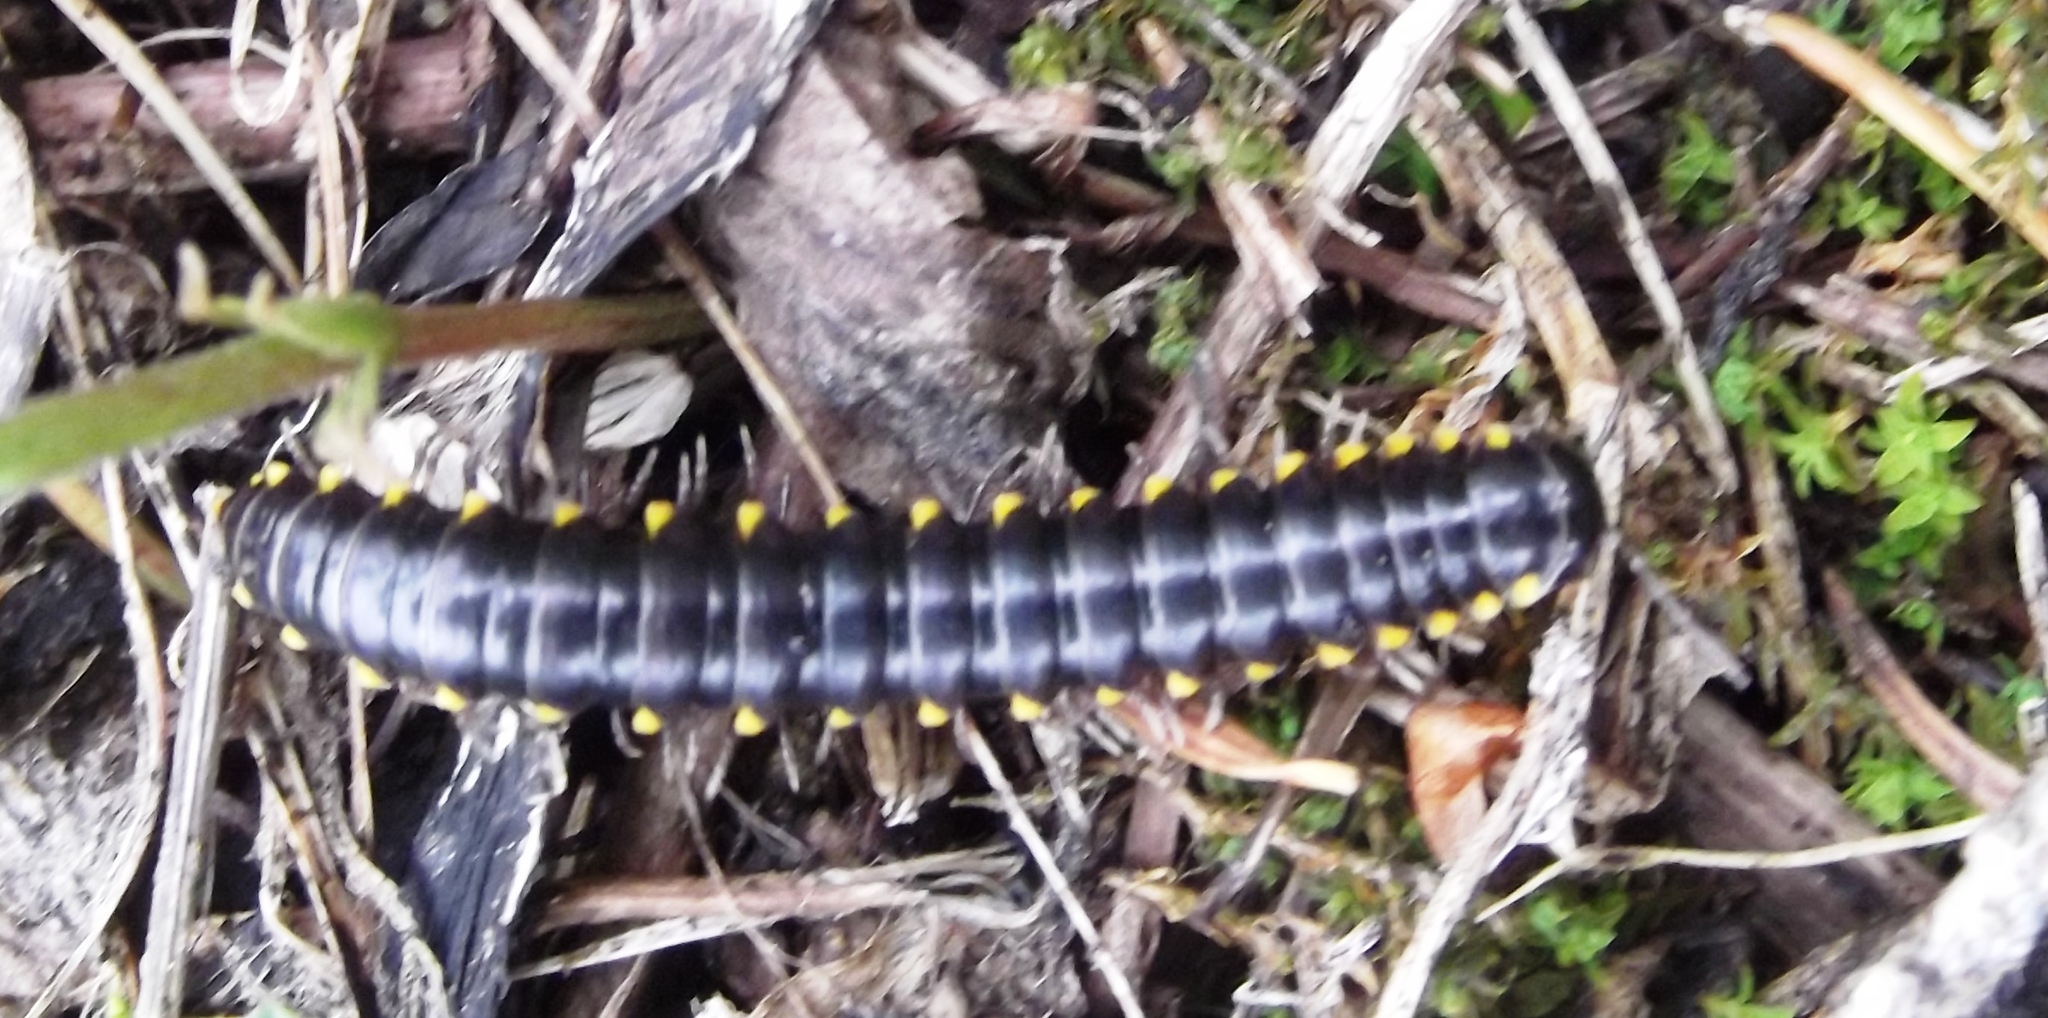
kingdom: Animalia
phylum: Arthropoda
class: Diplopoda
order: Polydesmida
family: Xystodesmidae
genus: Harpaphe
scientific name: Harpaphe haydeniana
